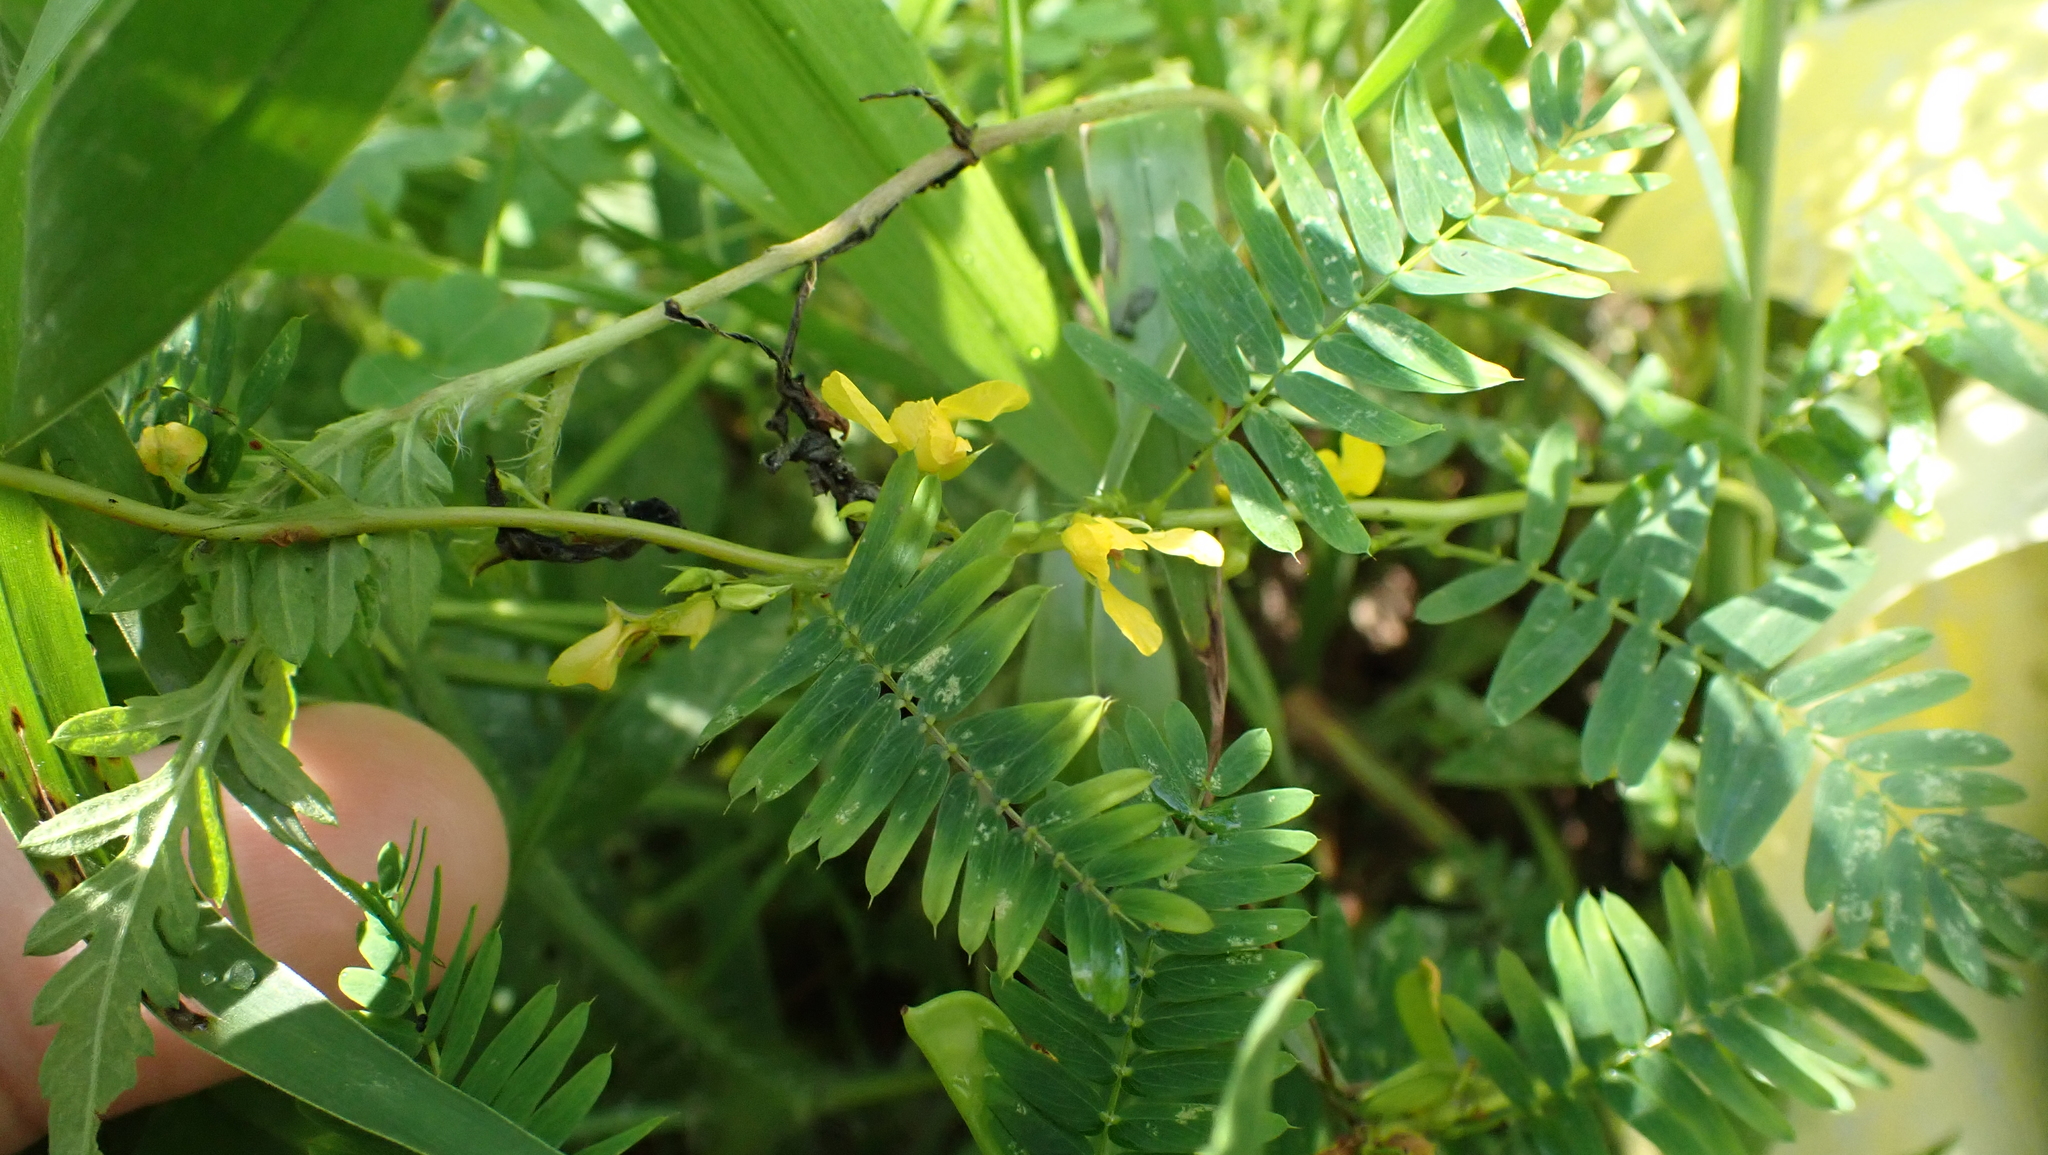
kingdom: Plantae
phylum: Tracheophyta
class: Magnoliopsida
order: Fabales
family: Fabaceae
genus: Chamaecrista
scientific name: Chamaecrista nictitans
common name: Sensitive cassia
